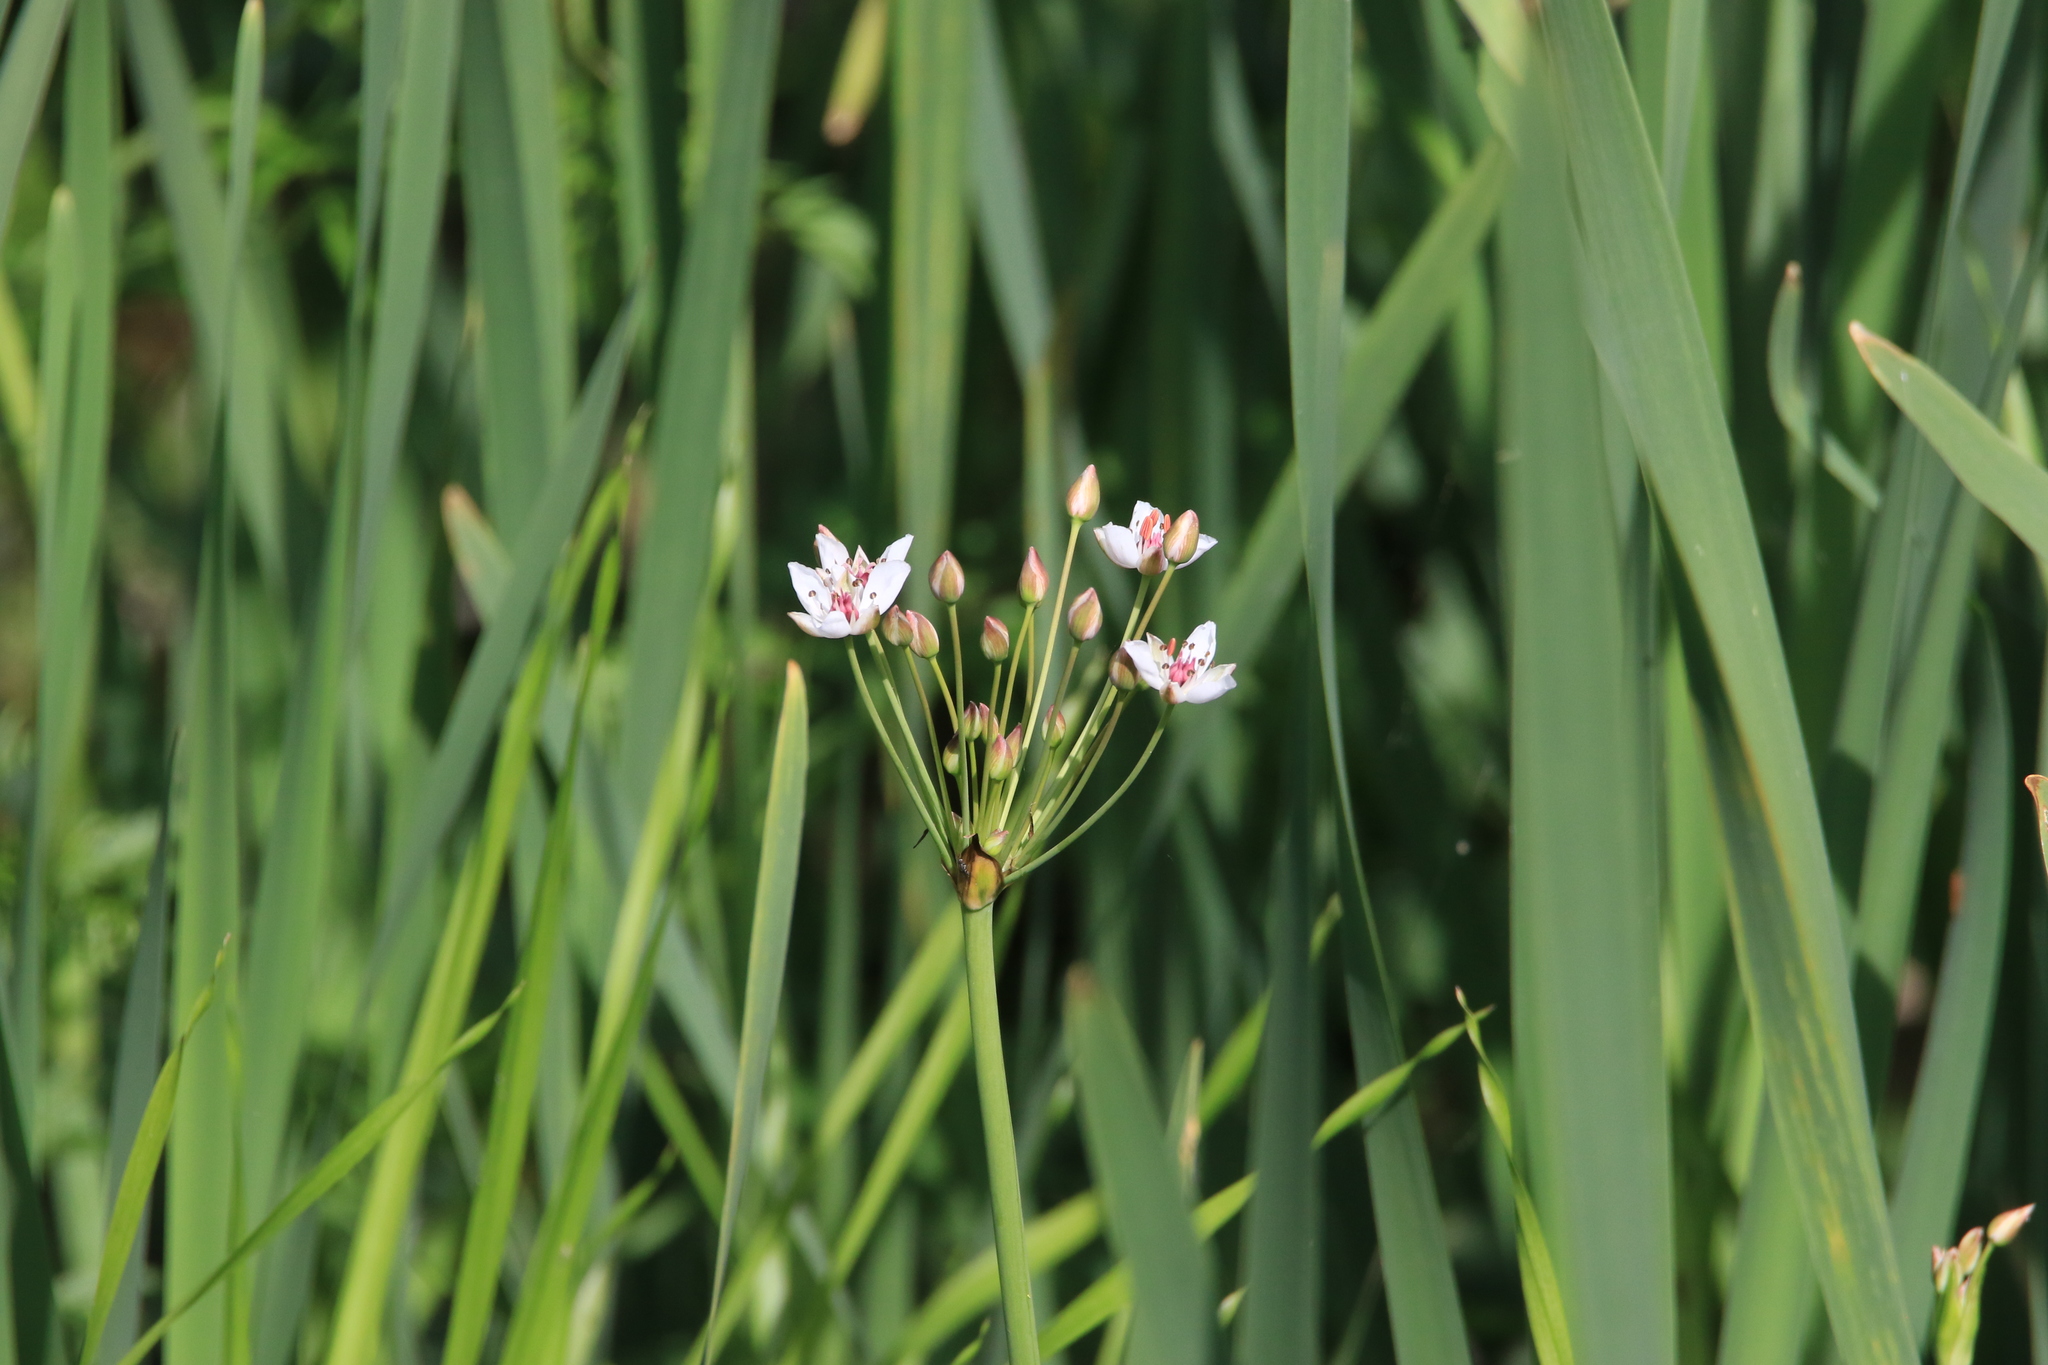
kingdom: Plantae
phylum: Tracheophyta
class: Liliopsida
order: Alismatales
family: Butomaceae
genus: Butomus
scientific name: Butomus umbellatus
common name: Flowering-rush
